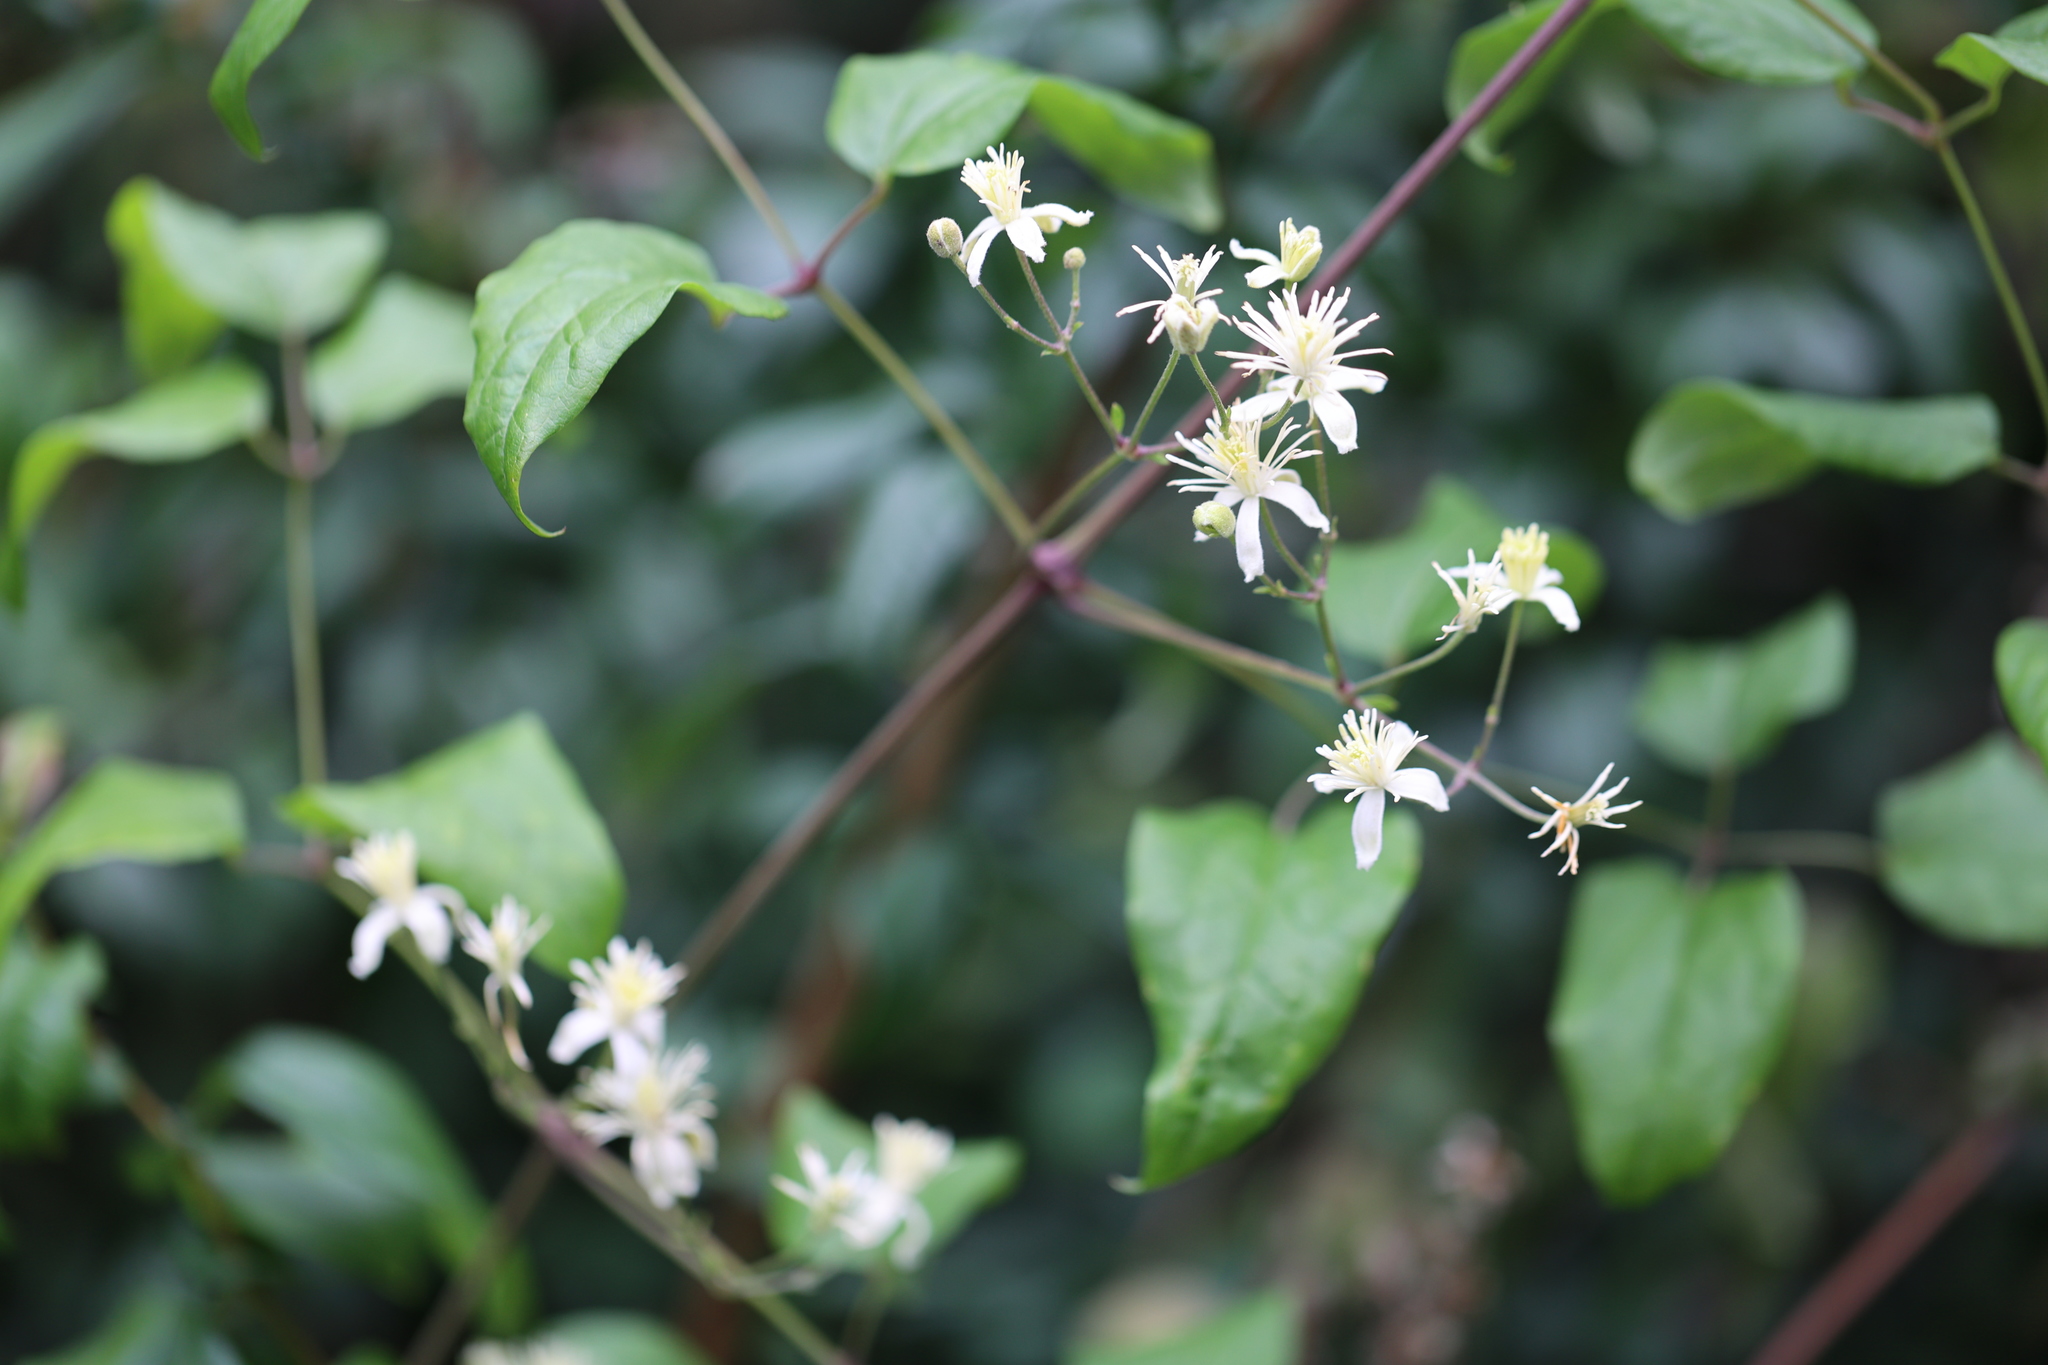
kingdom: Plantae
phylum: Tracheophyta
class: Magnoliopsida
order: Ranunculales
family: Ranunculaceae
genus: Clematis
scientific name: Clematis vitalba
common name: Evergreen clematis
